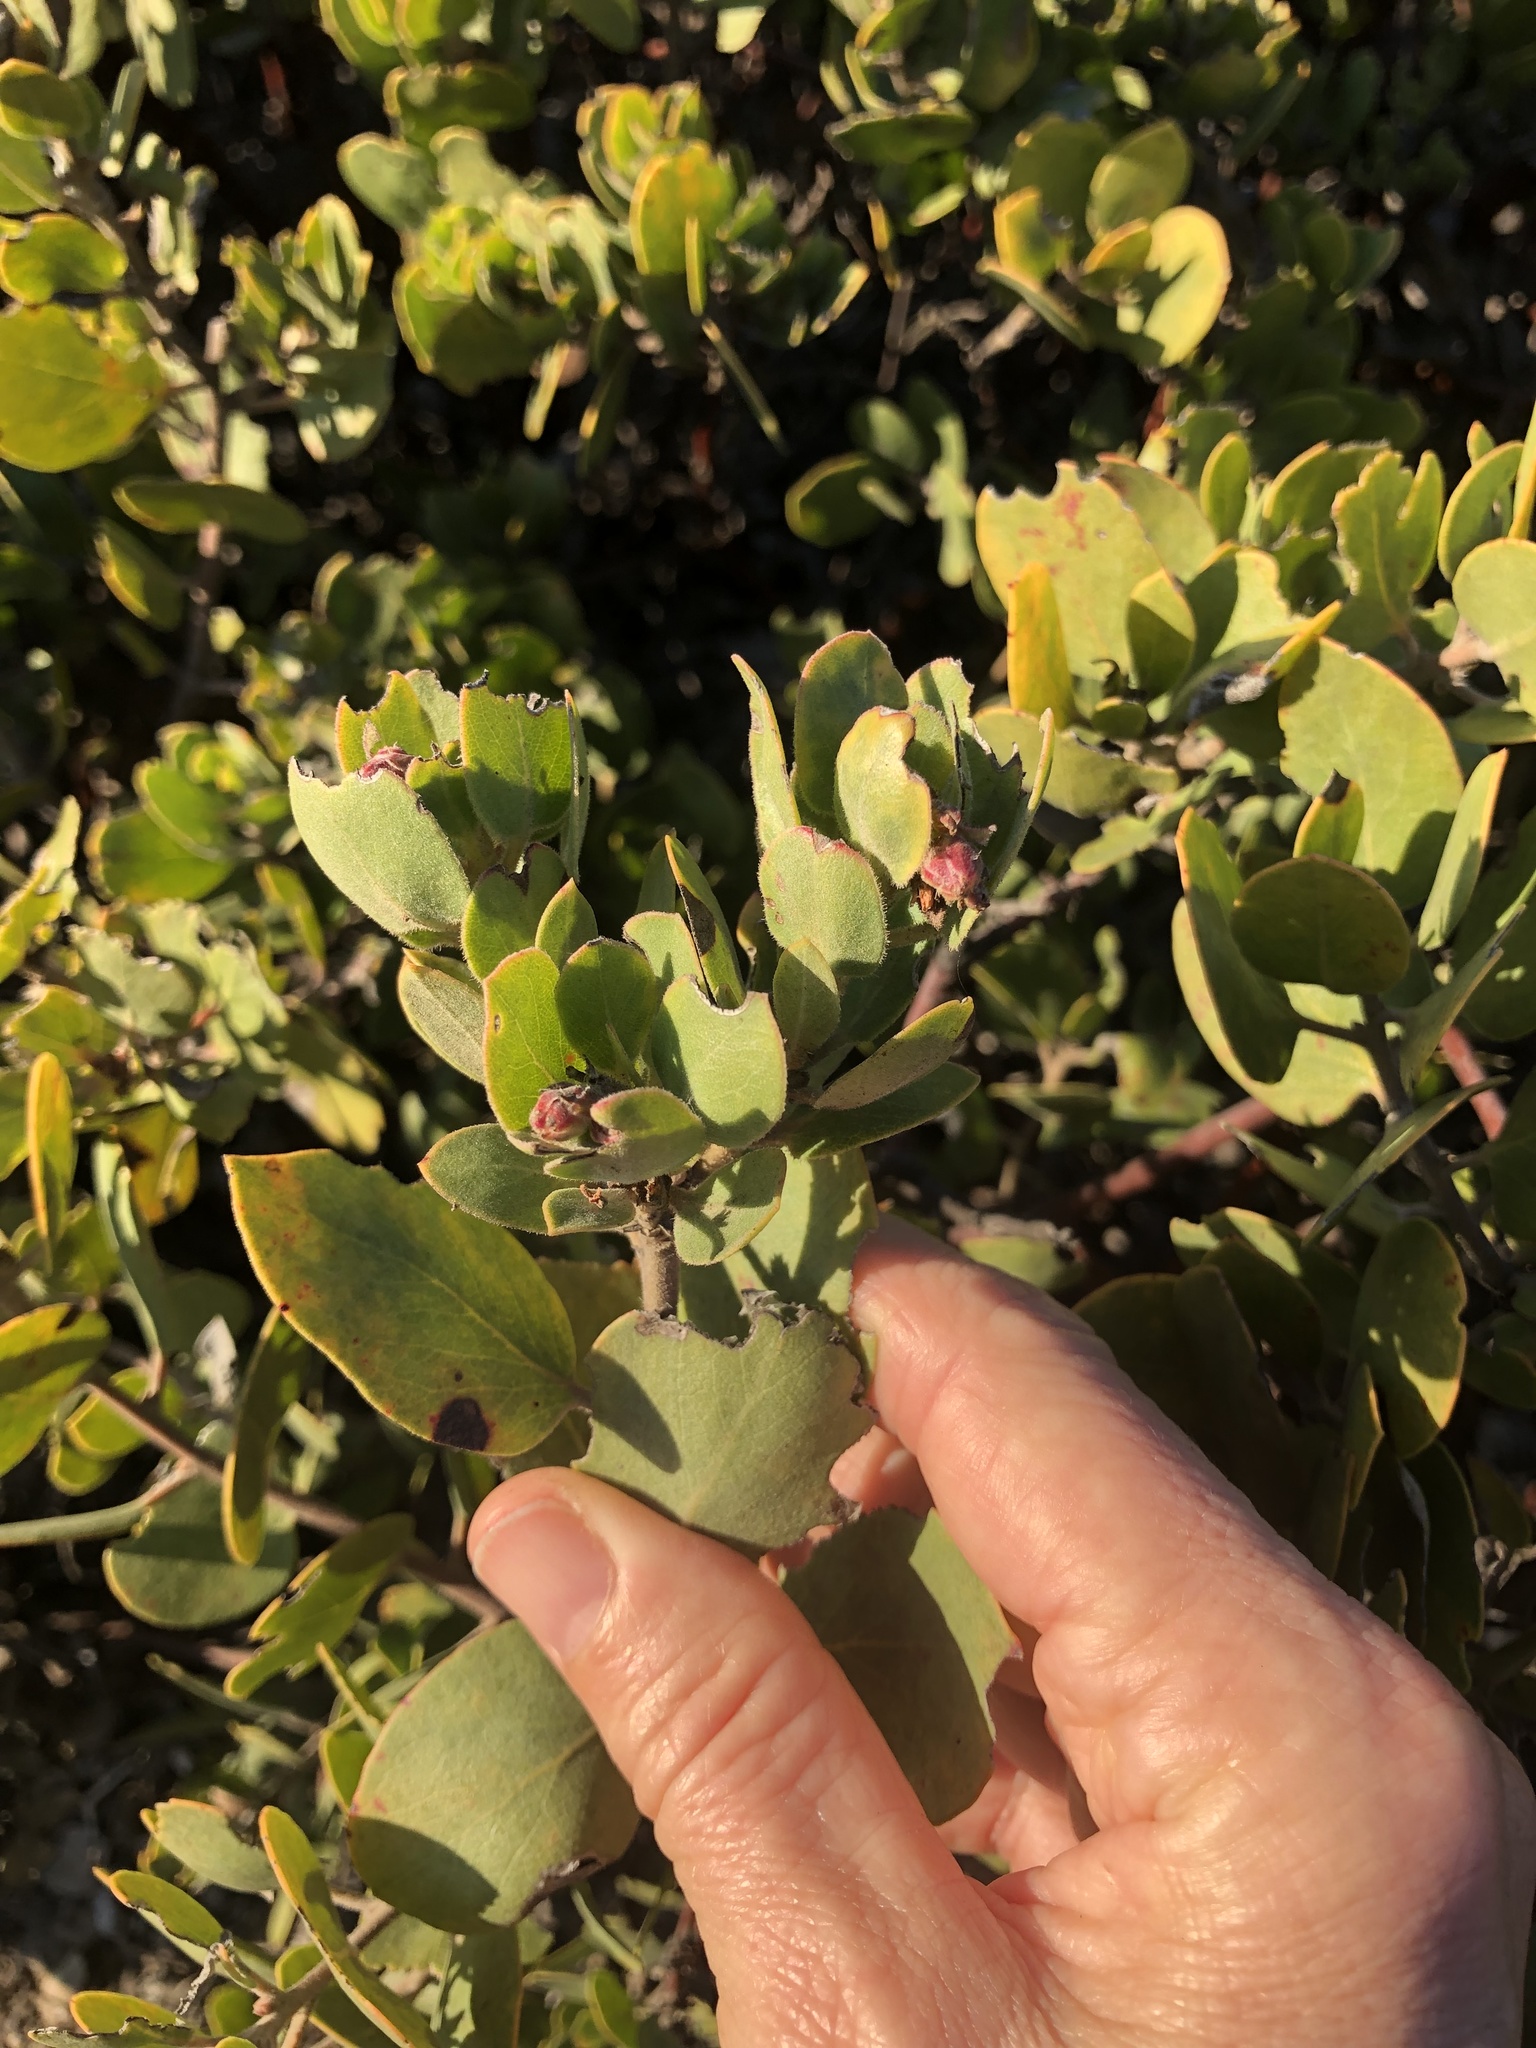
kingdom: Plantae
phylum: Tracheophyta
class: Magnoliopsida
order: Ericales
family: Ericaceae
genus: Arctostaphylos
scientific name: Arctostaphylos glandulosa
